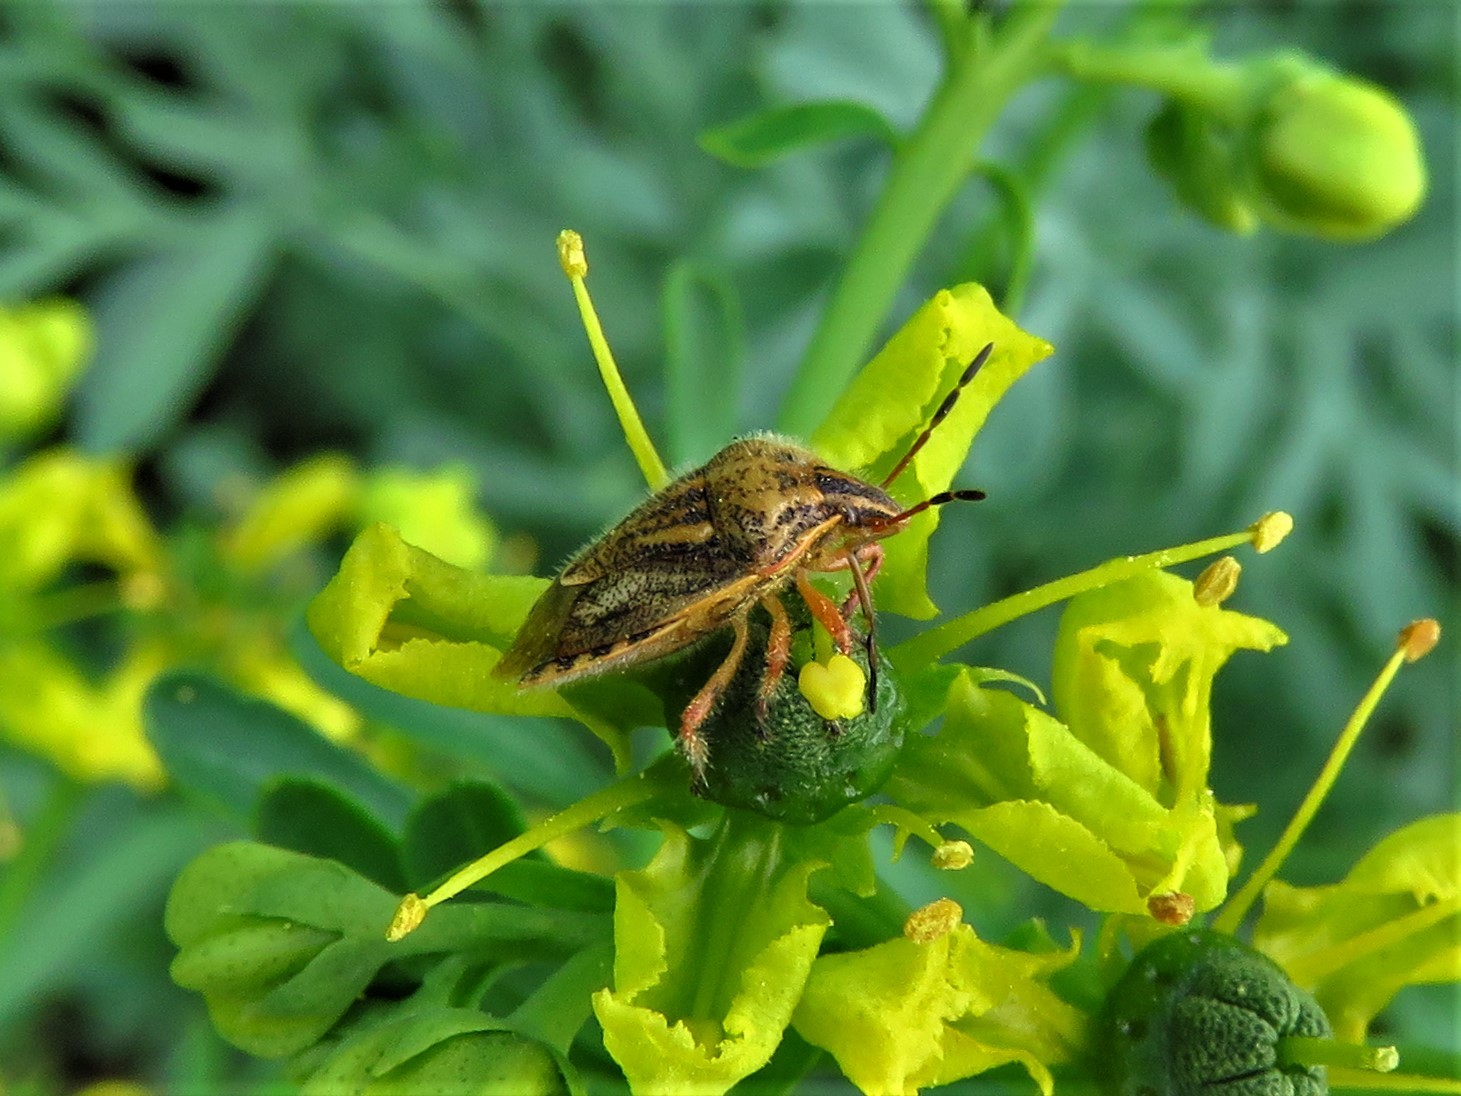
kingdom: Animalia
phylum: Arthropoda
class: Insecta
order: Hemiptera
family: Pentatomidae
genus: Trichopepla
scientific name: Trichopepla semivittata
